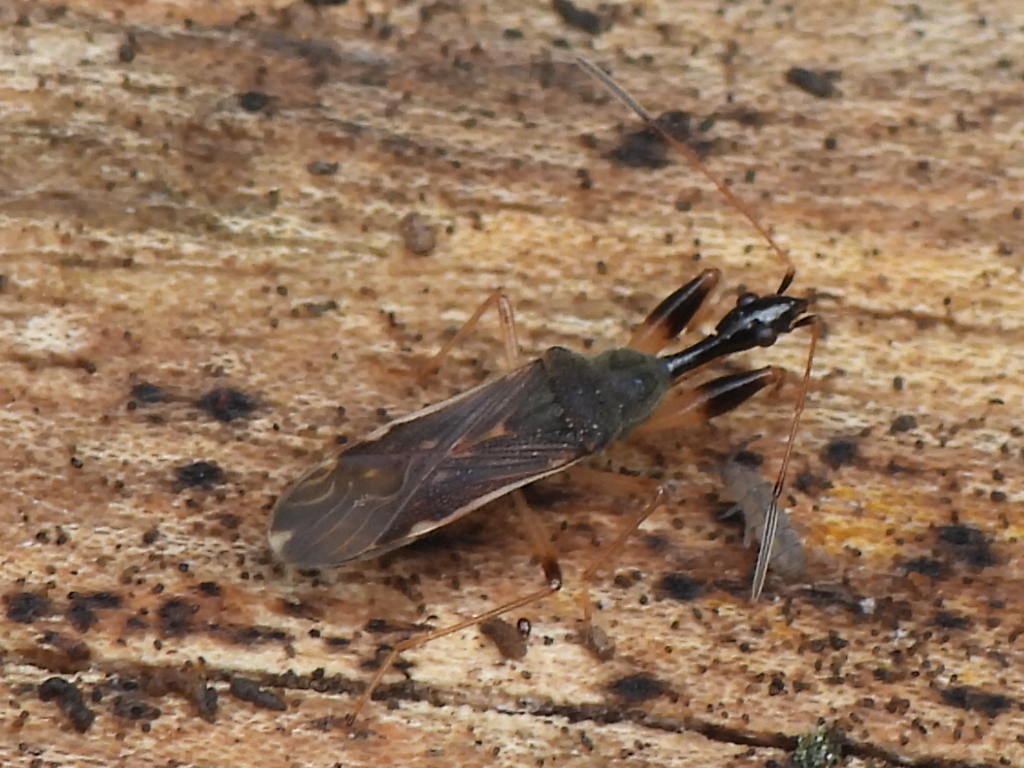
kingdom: Animalia
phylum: Arthropoda
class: Insecta
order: Hemiptera
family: Rhyparochromidae
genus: Myodocha
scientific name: Myodocha serripes
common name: Long-necked seed bug
